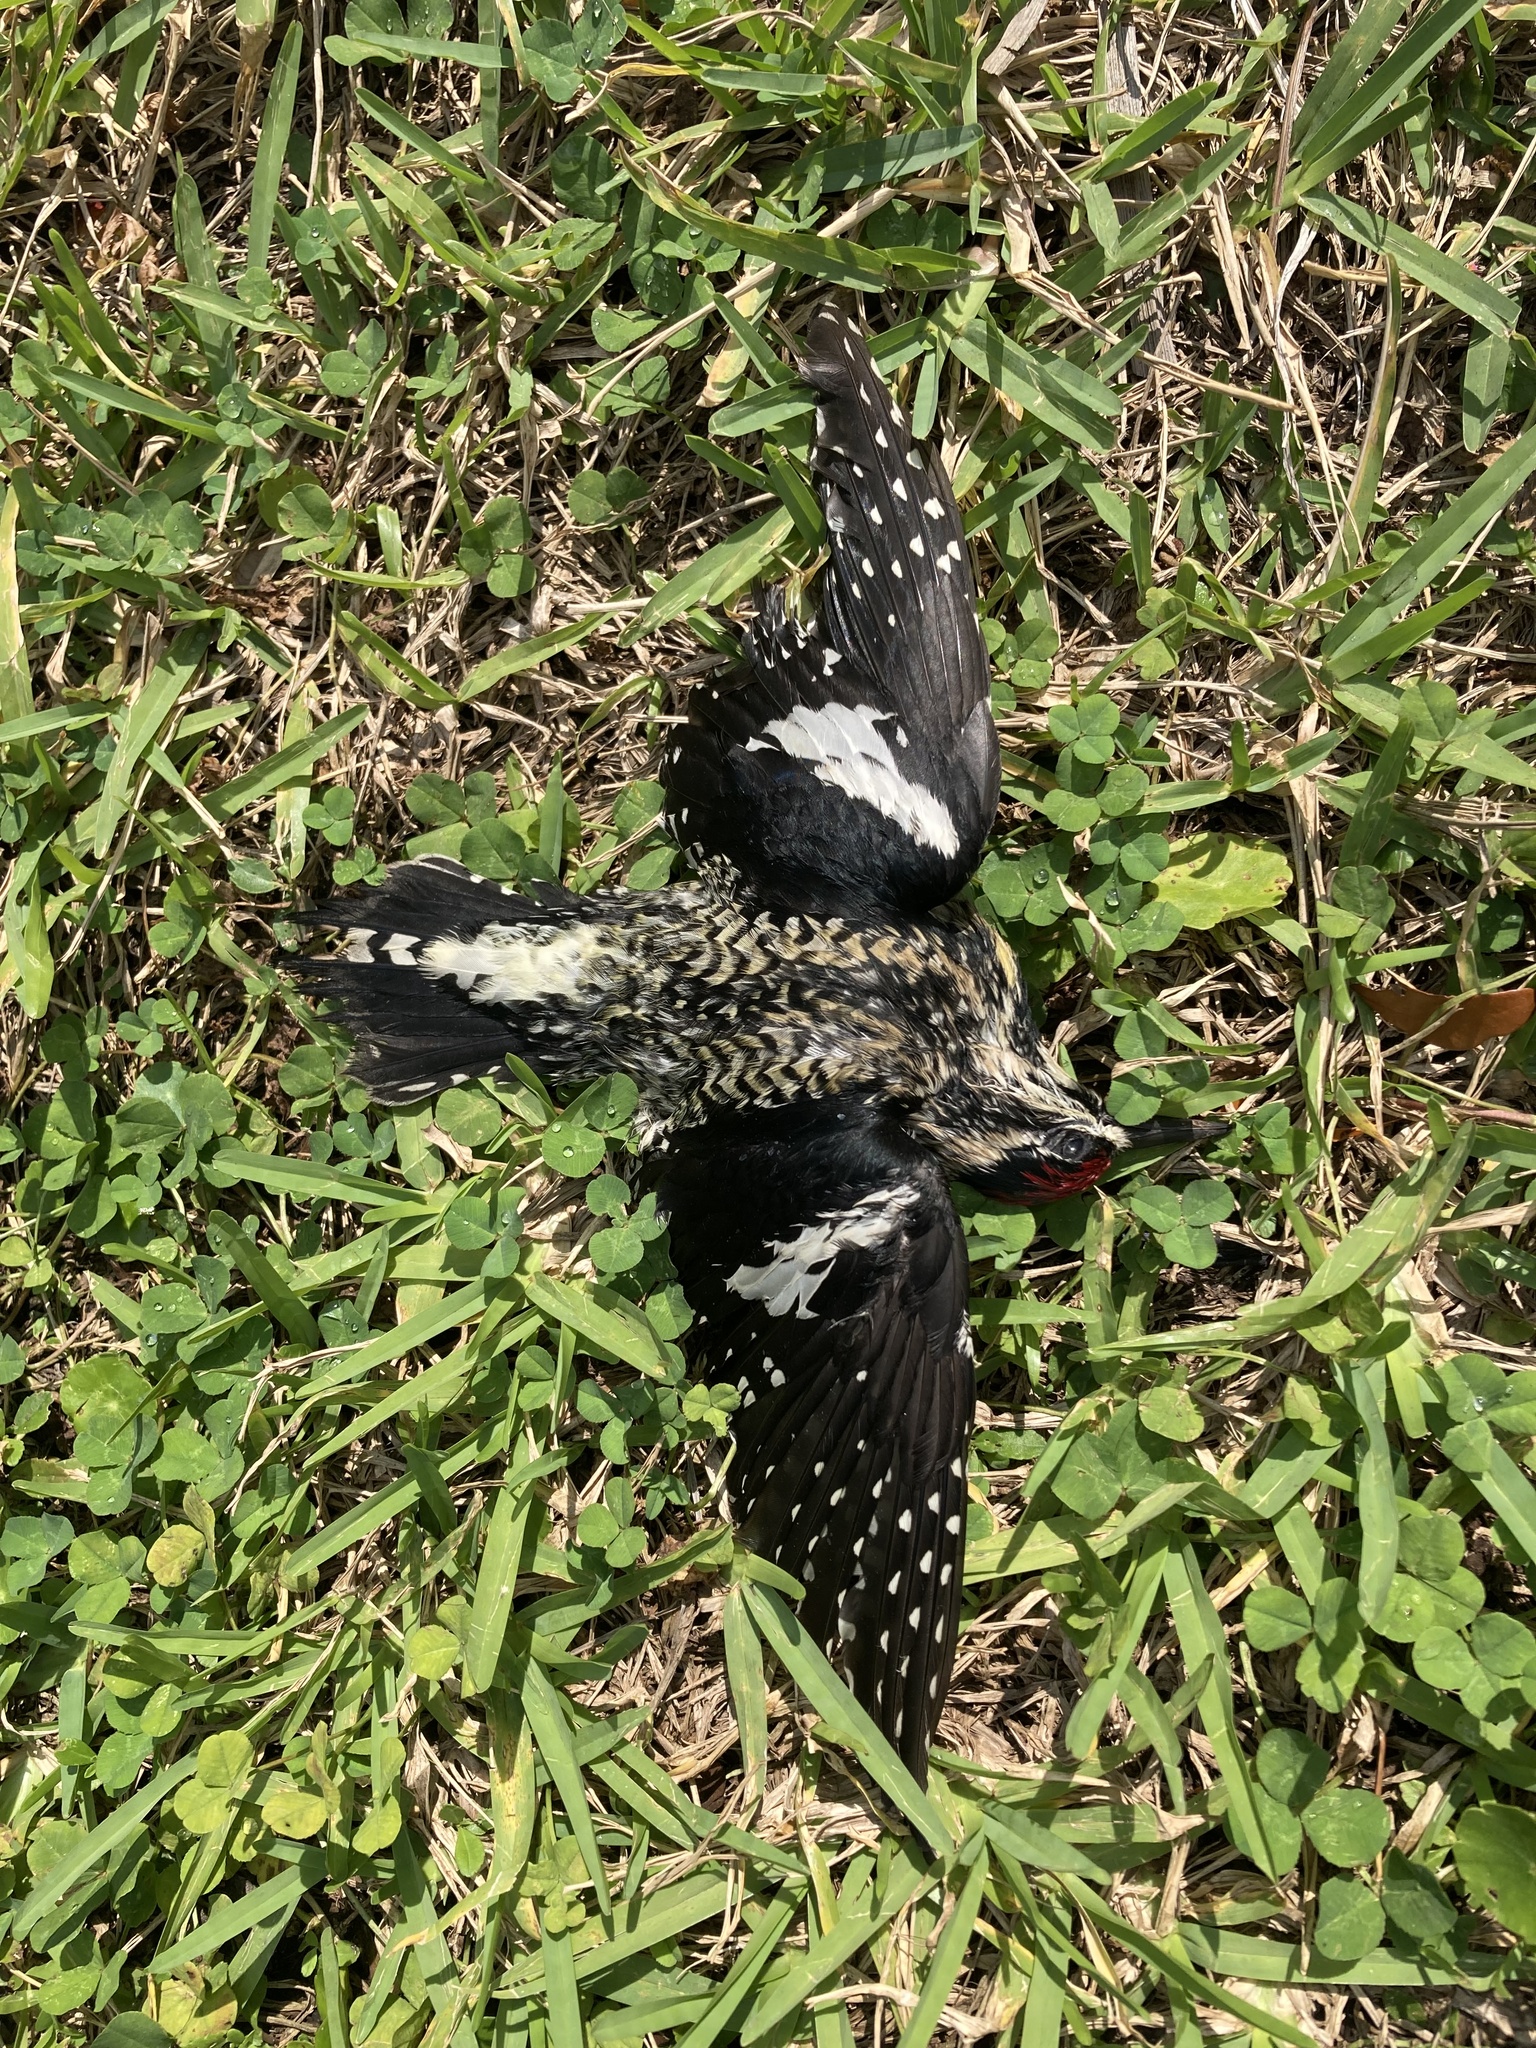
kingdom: Animalia
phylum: Chordata
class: Aves
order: Piciformes
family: Picidae
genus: Sphyrapicus
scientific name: Sphyrapicus varius
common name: Yellow-bellied sapsucker
